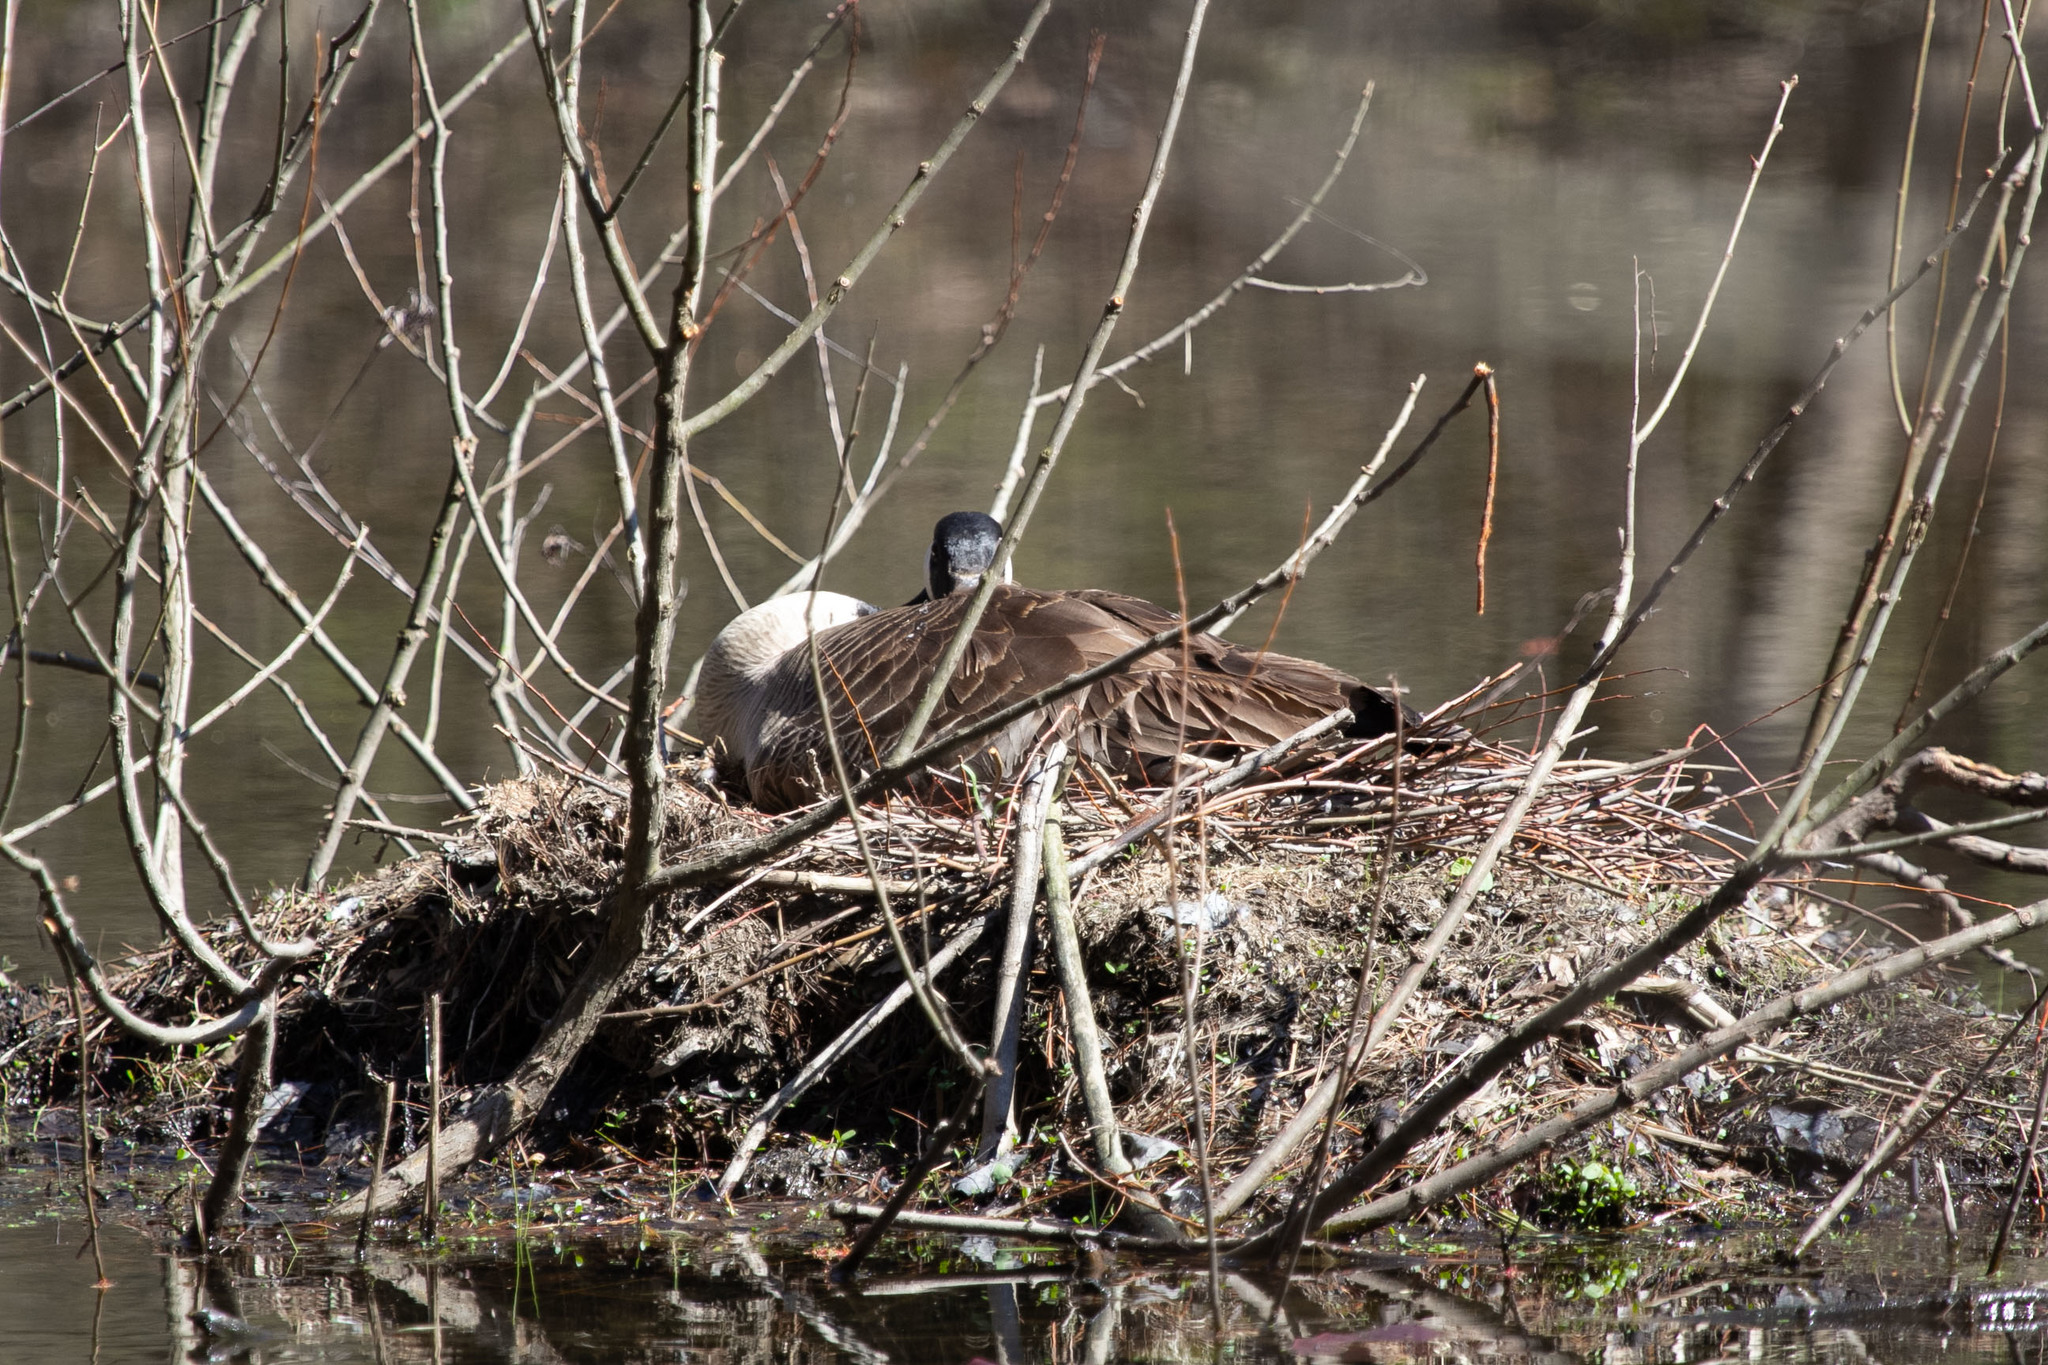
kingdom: Animalia
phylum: Chordata
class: Aves
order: Anseriformes
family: Anatidae
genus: Branta
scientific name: Branta canadensis
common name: Canada goose
